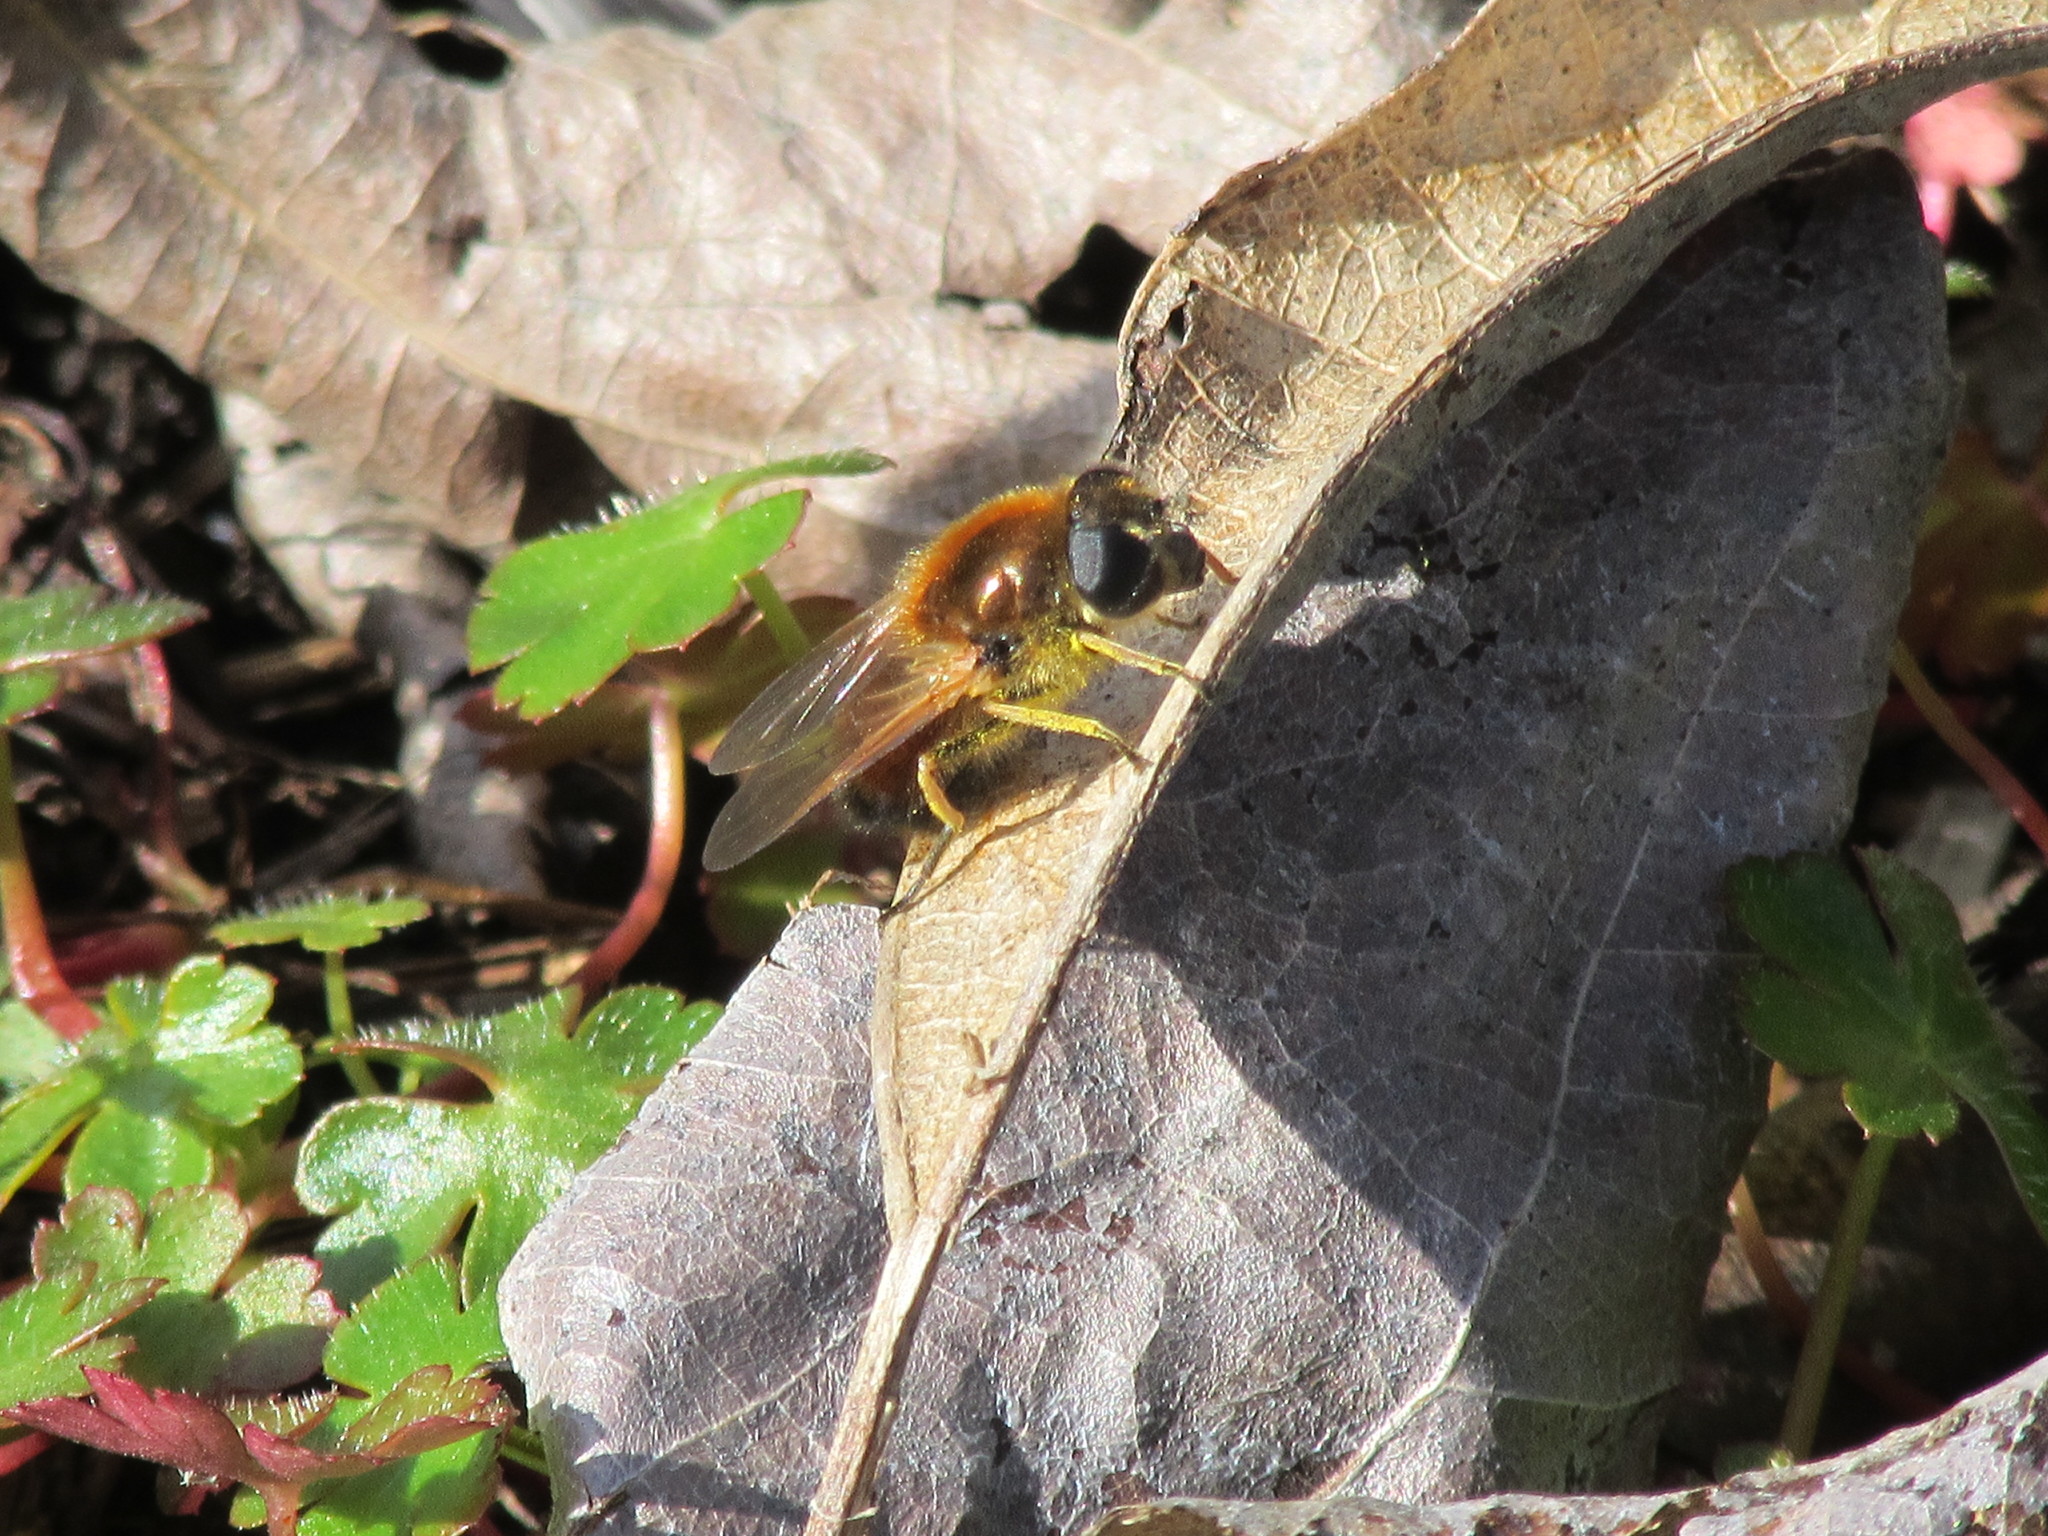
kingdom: Animalia
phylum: Arthropoda
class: Insecta
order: Diptera
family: Syrphidae
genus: Cheilosia
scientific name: Cheilosia corydon
